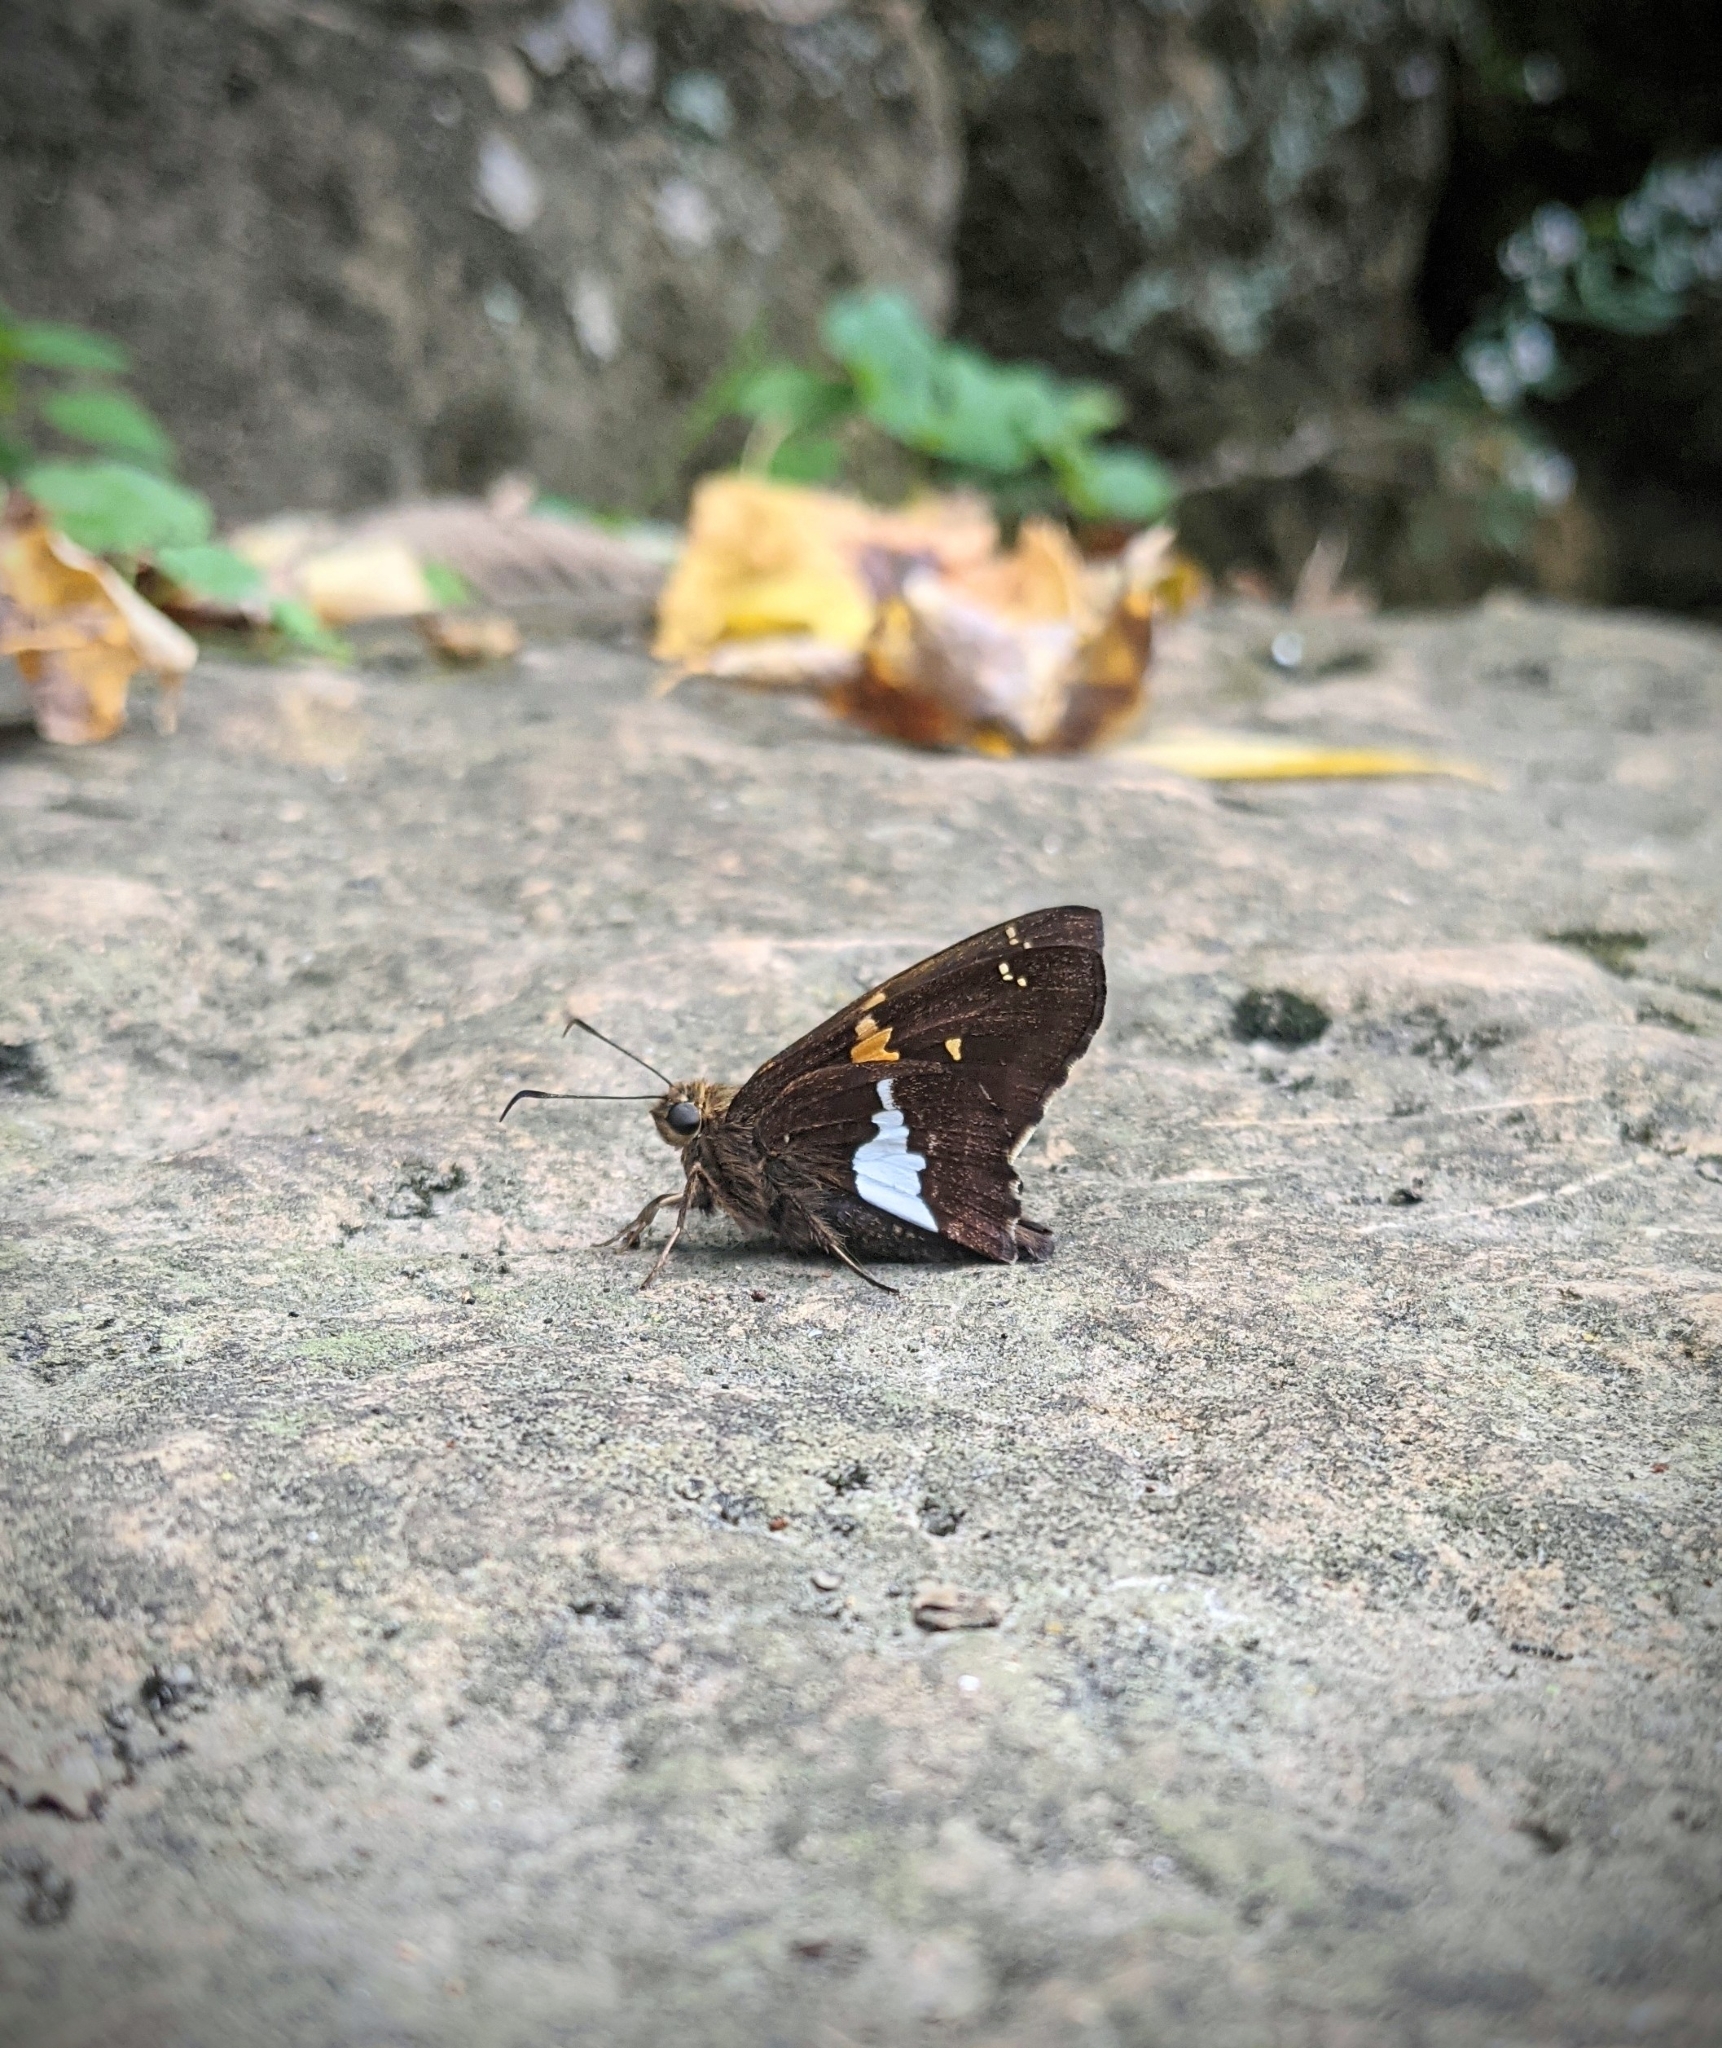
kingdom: Animalia
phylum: Arthropoda
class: Insecta
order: Lepidoptera
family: Hesperiidae
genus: Epargyreus
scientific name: Epargyreus clarus
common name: Silver-spotted skipper
